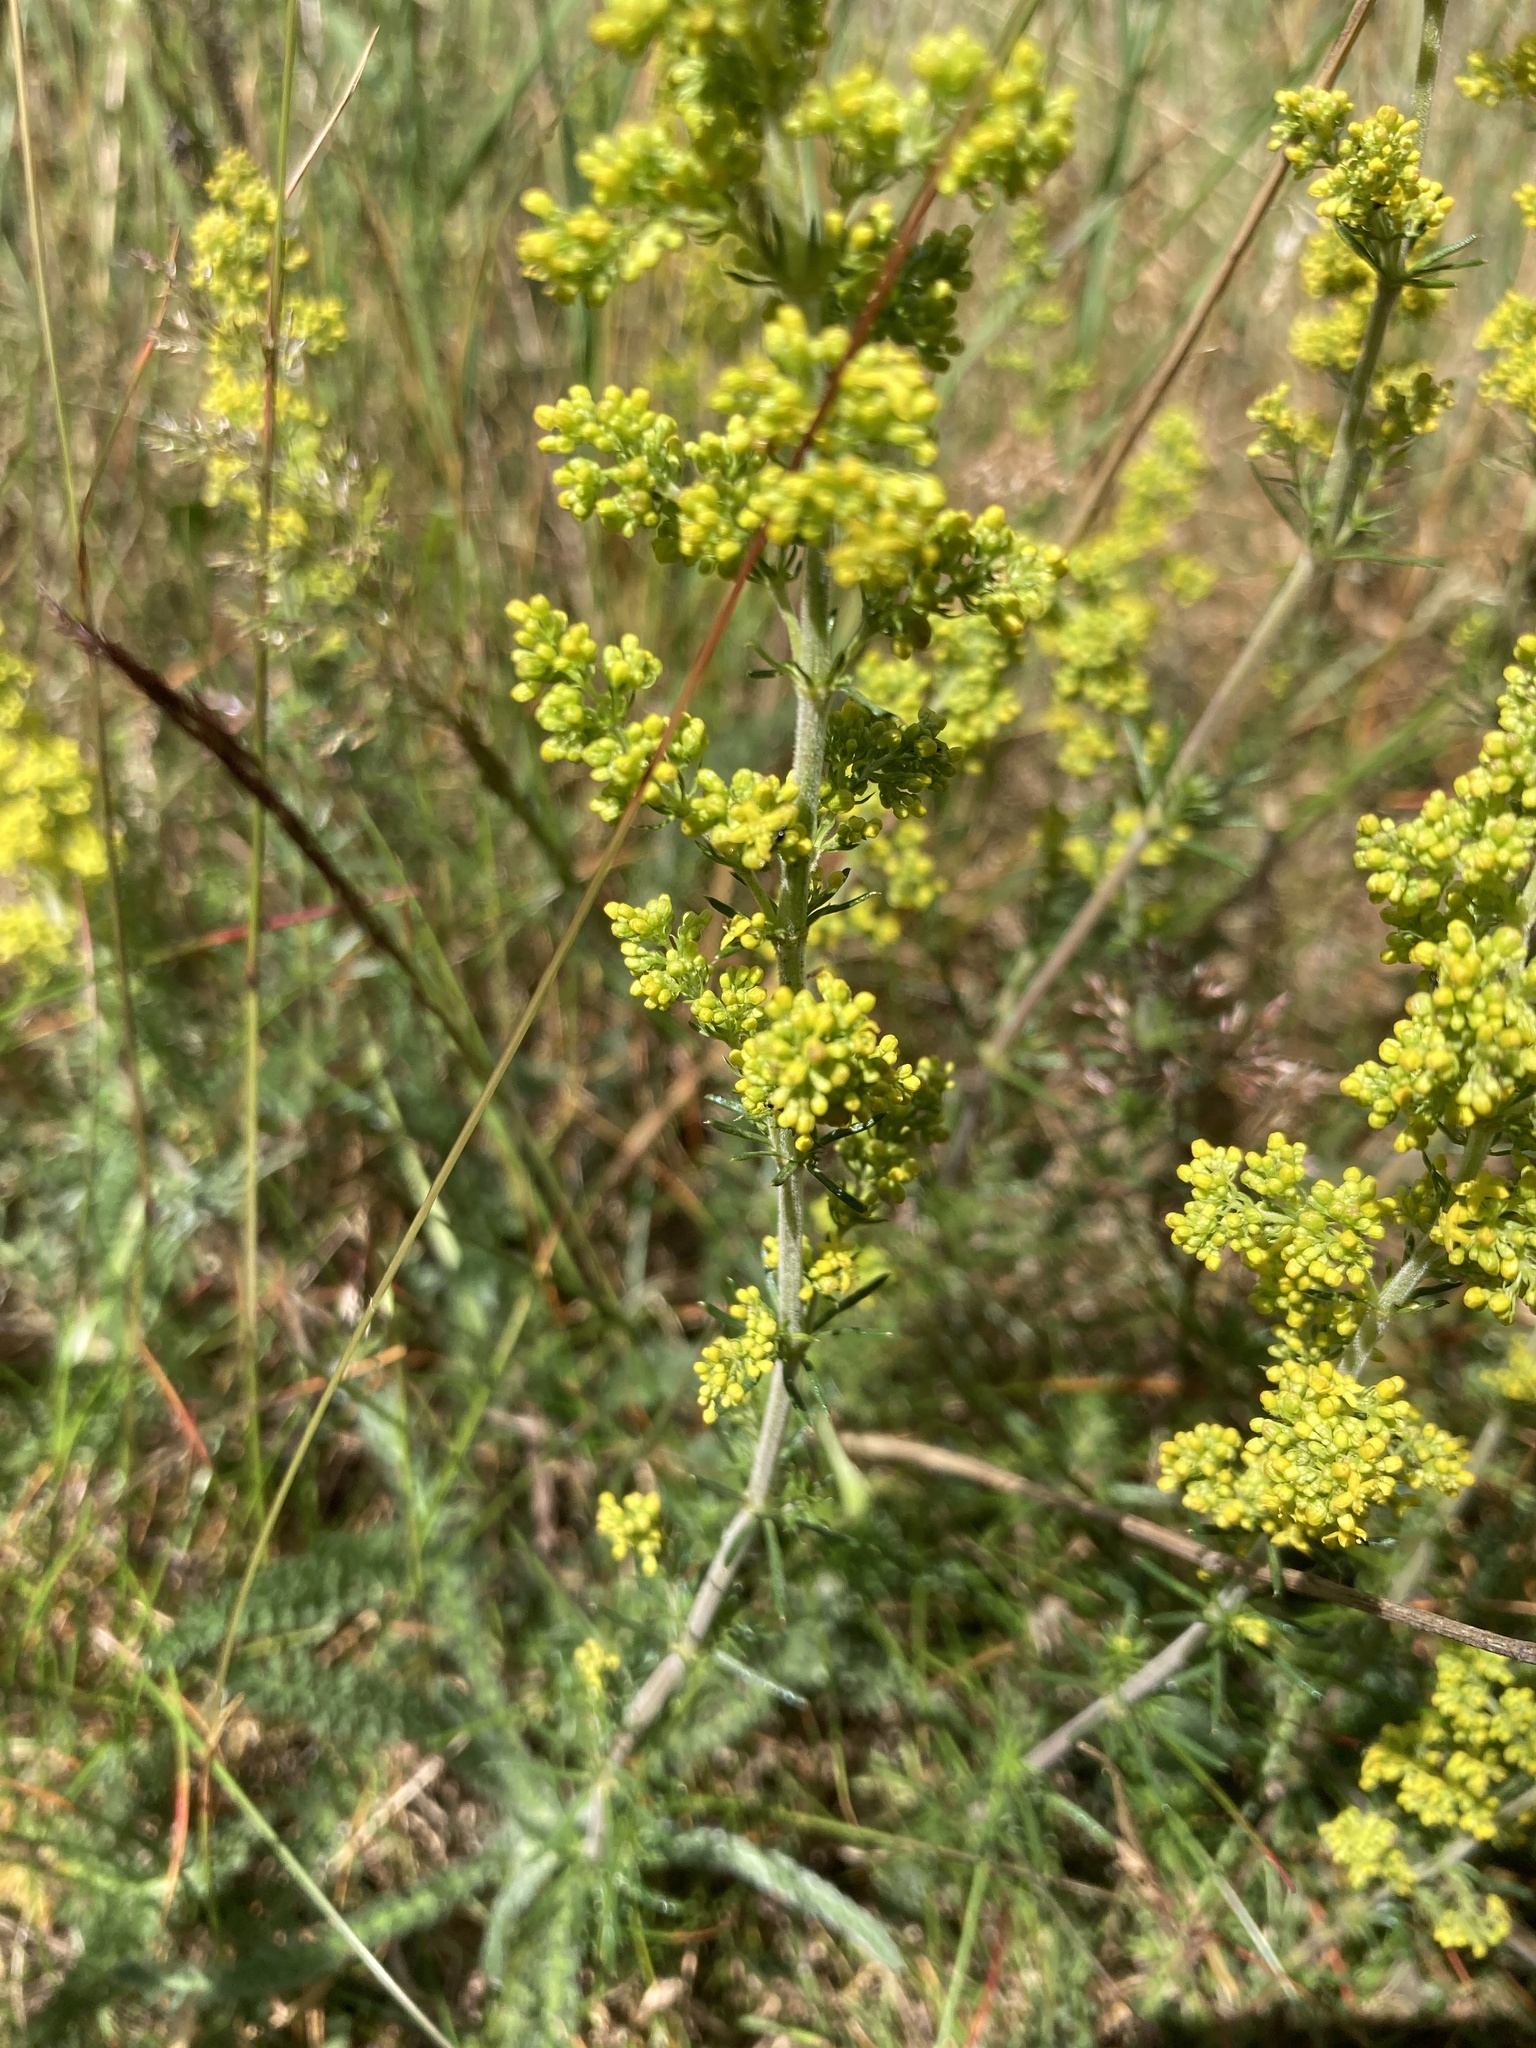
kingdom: Plantae
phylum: Tracheophyta
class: Magnoliopsida
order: Gentianales
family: Rubiaceae
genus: Galium
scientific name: Galium verum
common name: Lady's bedstraw
